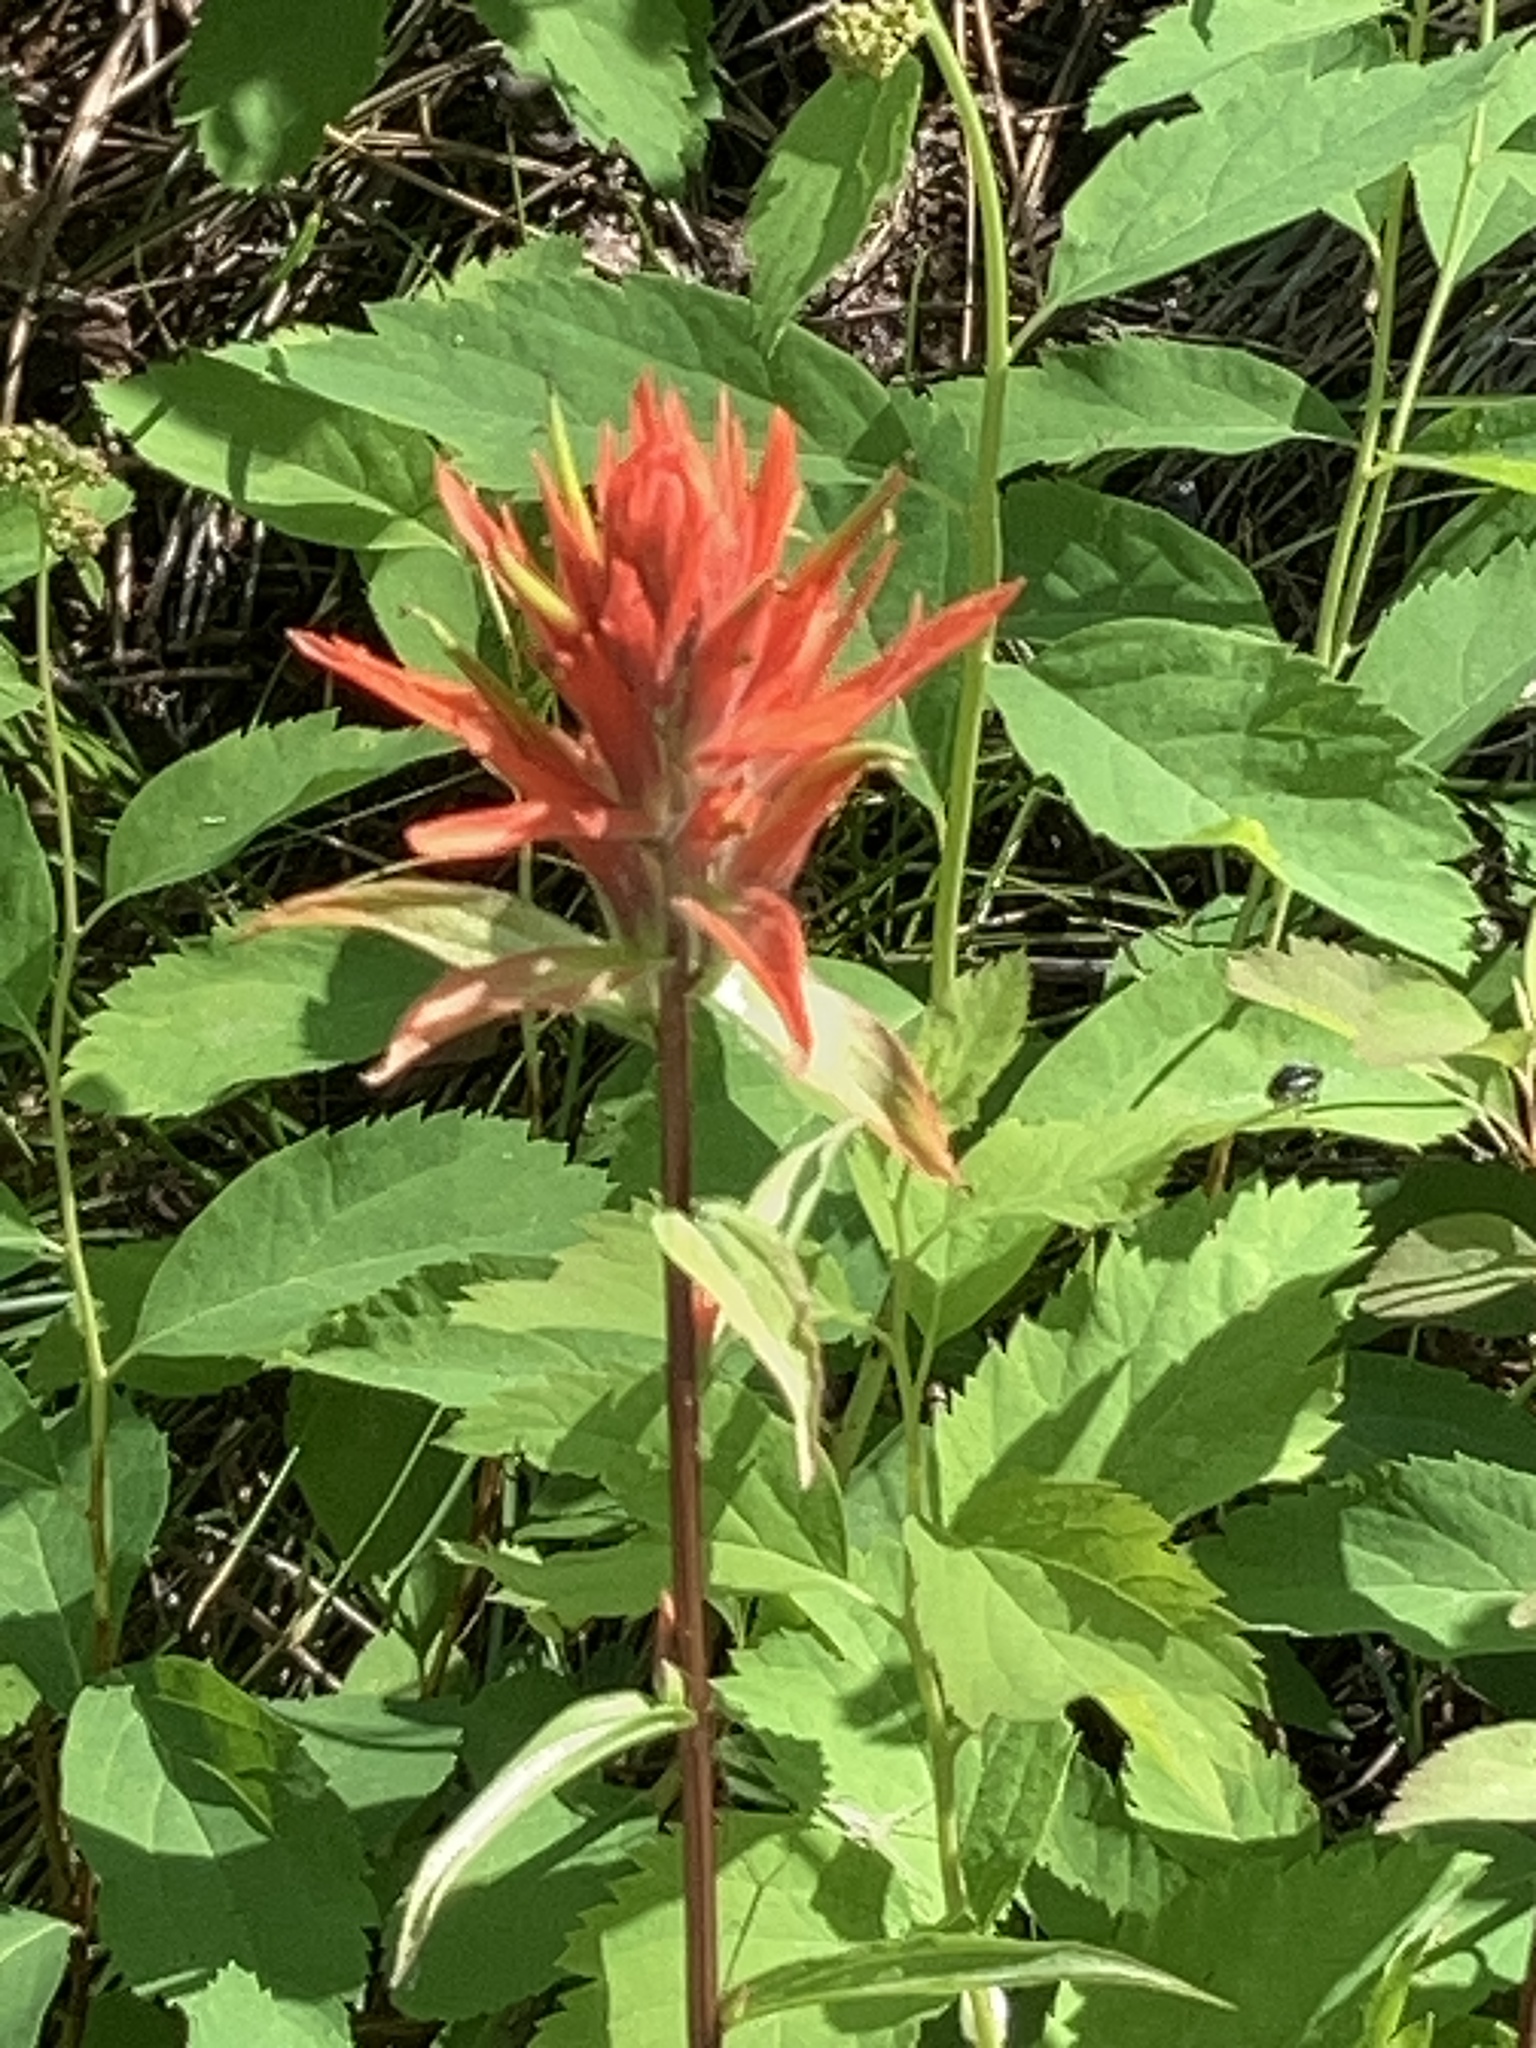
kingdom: Plantae
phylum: Tracheophyta
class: Magnoliopsida
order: Lamiales
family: Orobanchaceae
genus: Castilleja
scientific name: Castilleja miniata
